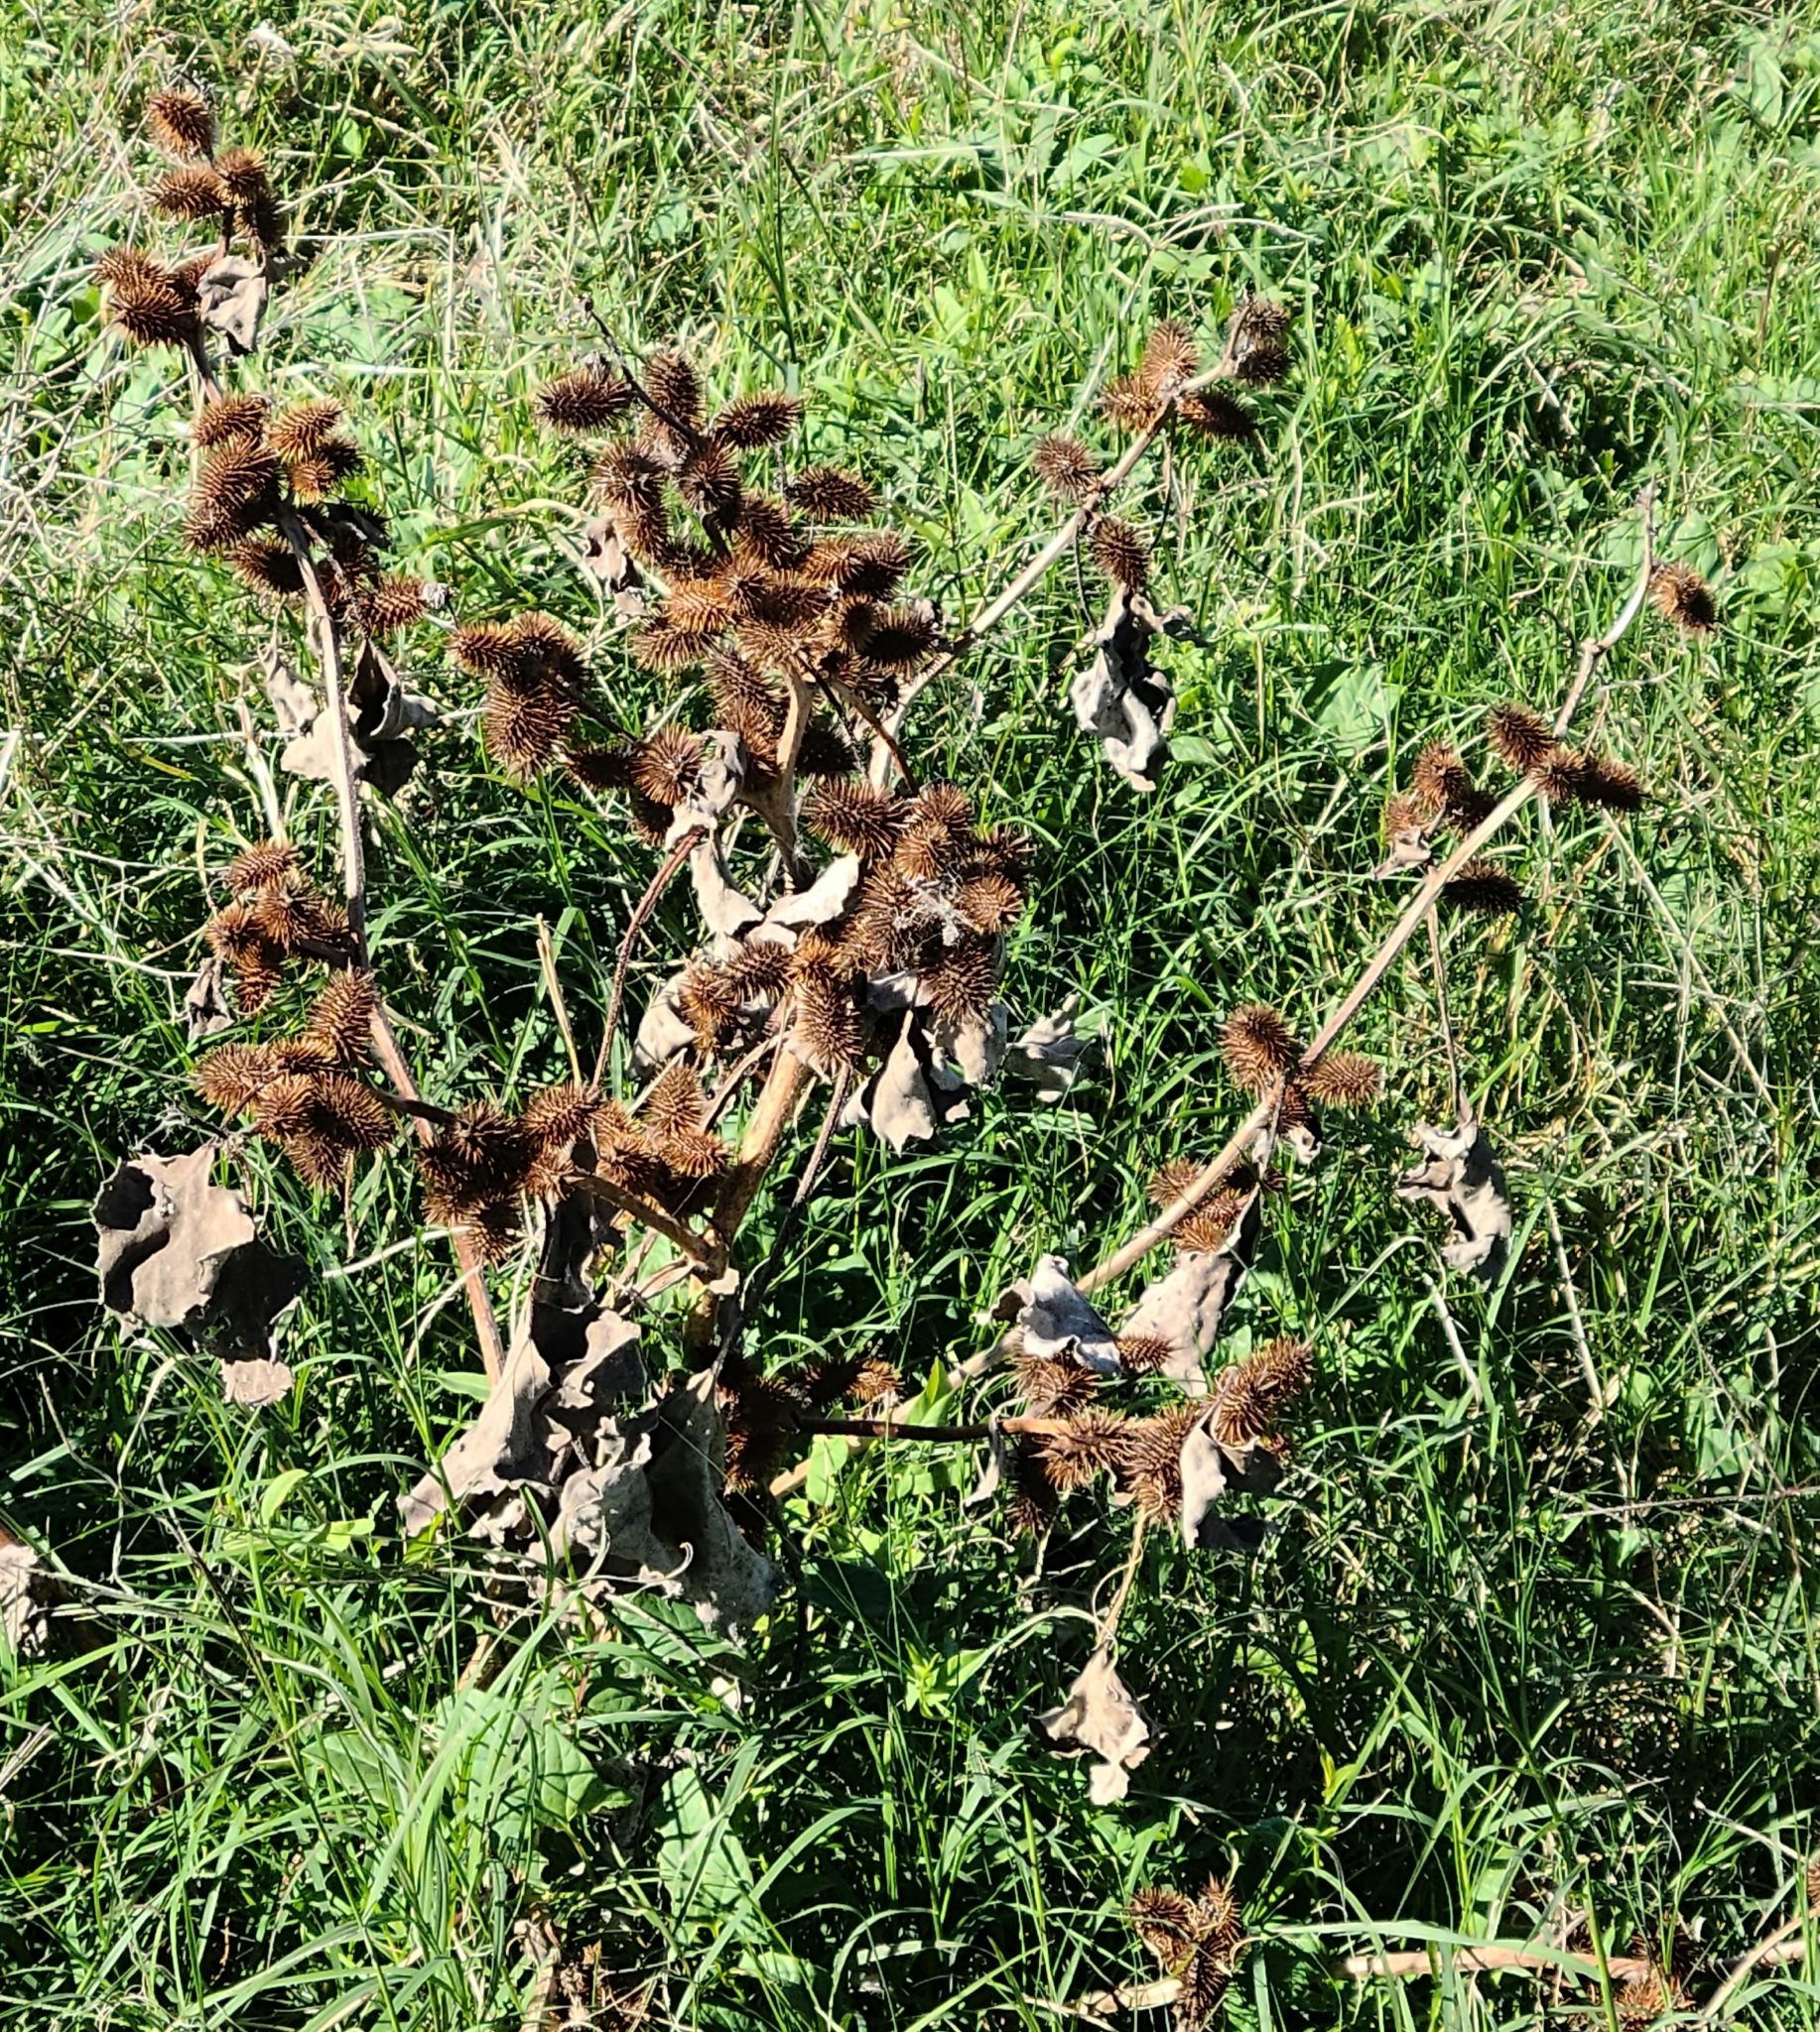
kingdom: Plantae
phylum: Tracheophyta
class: Magnoliopsida
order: Asterales
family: Asteraceae
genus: Xanthium
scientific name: Xanthium strumarium
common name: Rough cocklebur
